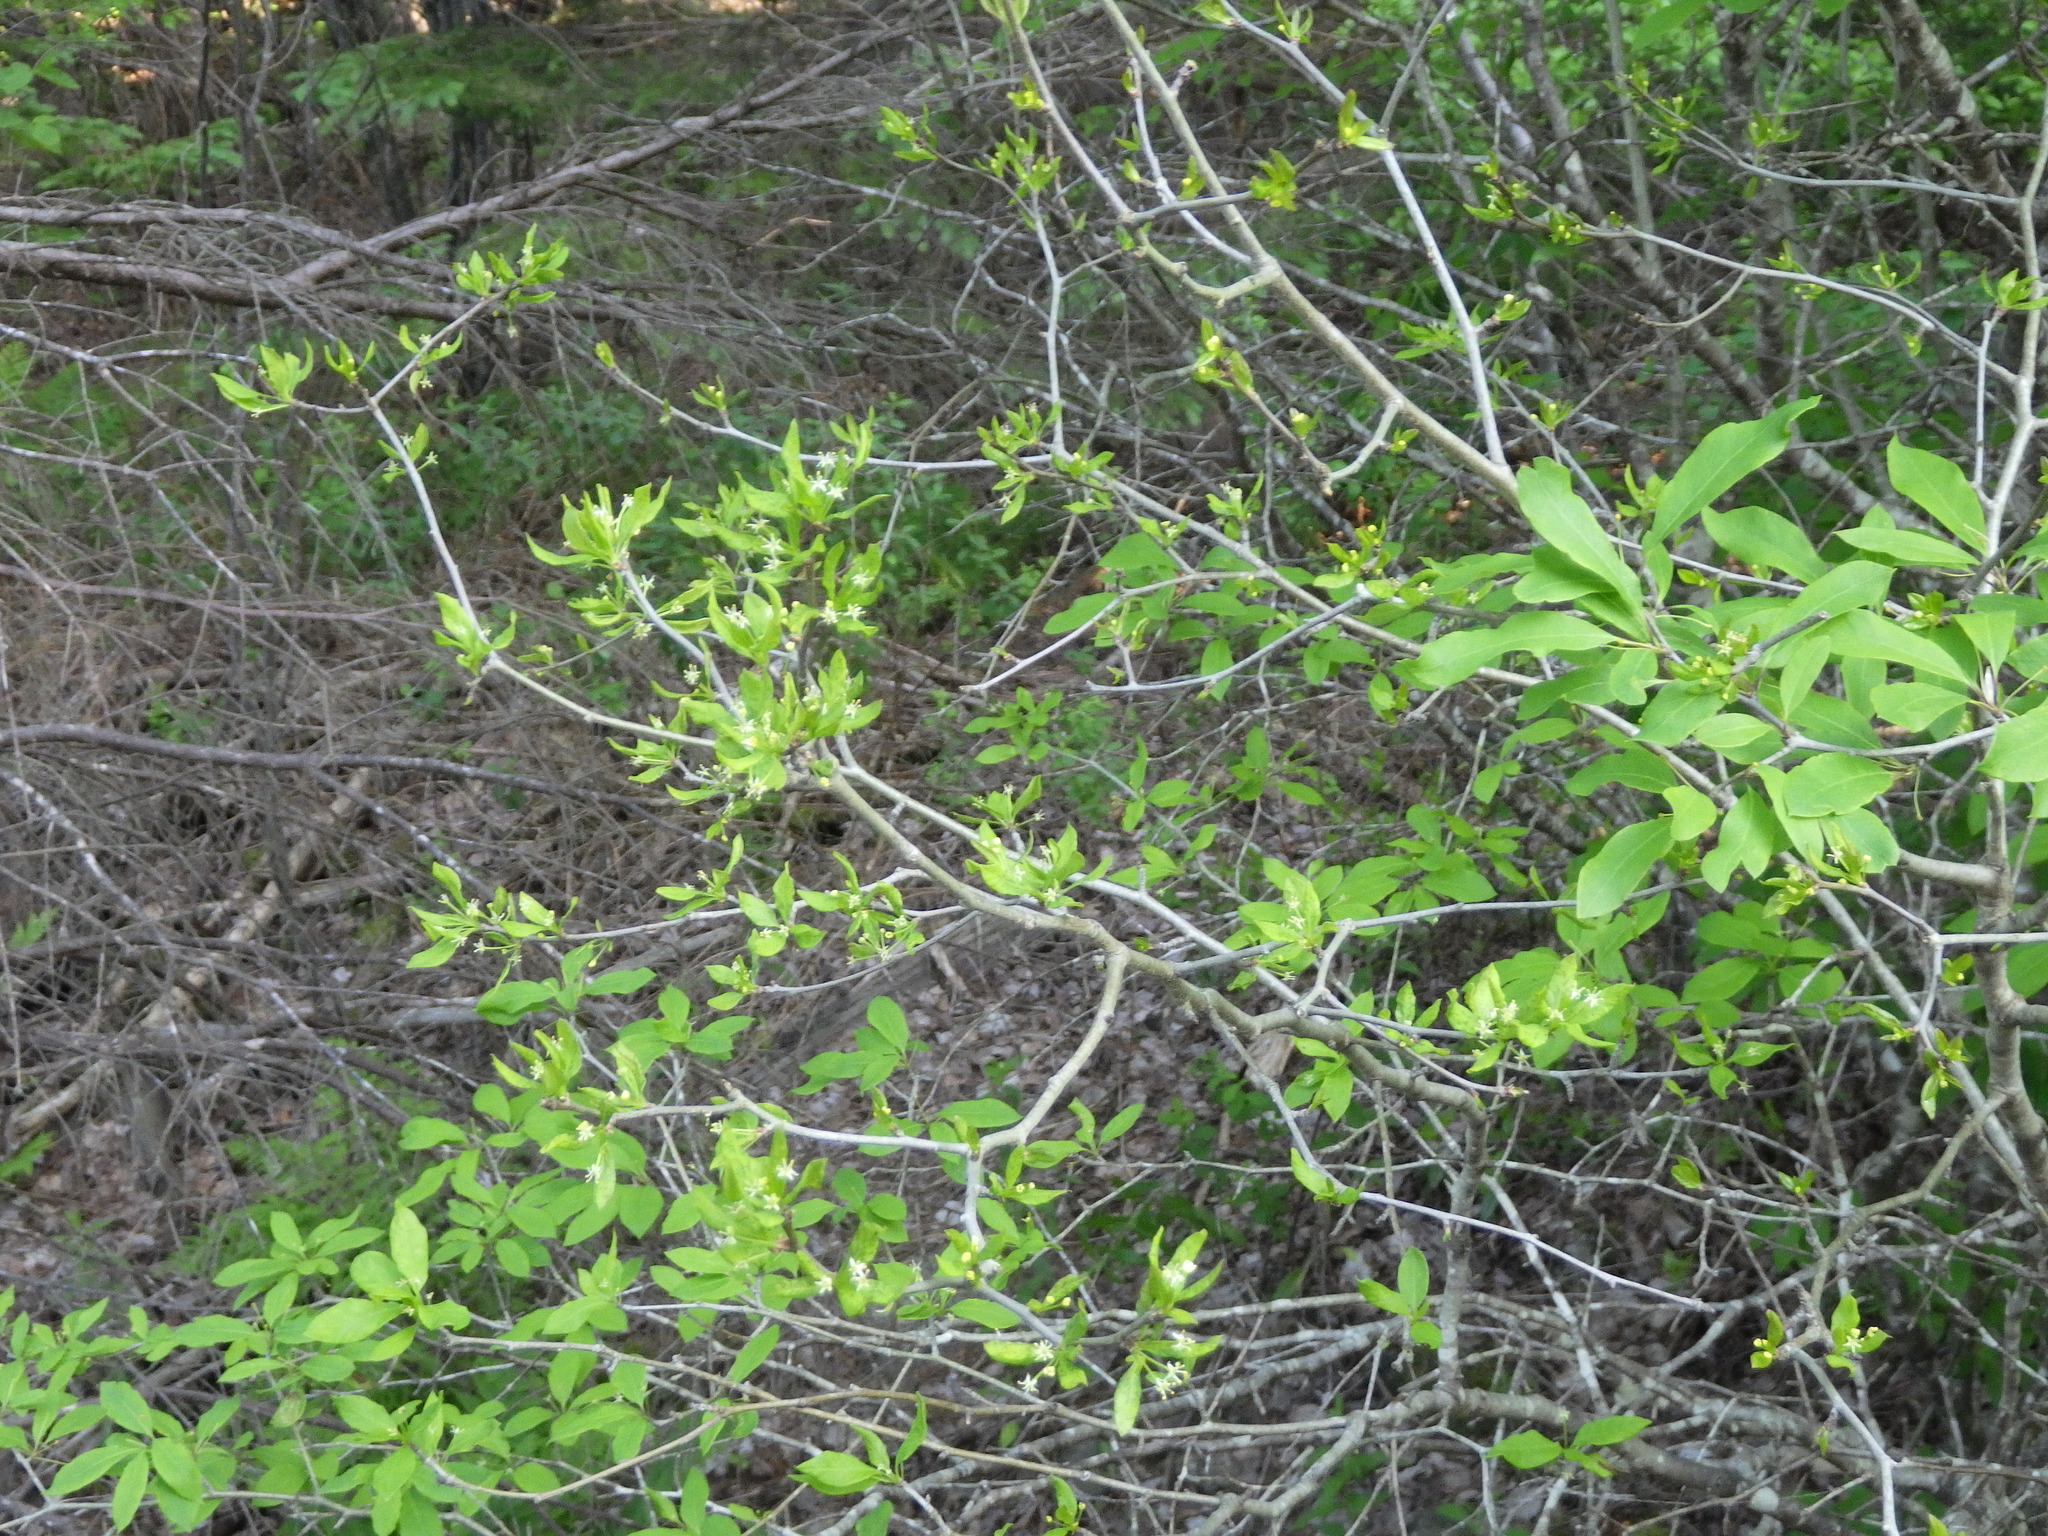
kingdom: Plantae
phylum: Tracheophyta
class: Magnoliopsida
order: Aquifoliales
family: Aquifoliaceae
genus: Ilex
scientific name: Ilex verticillata
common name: Virginia winterberry
